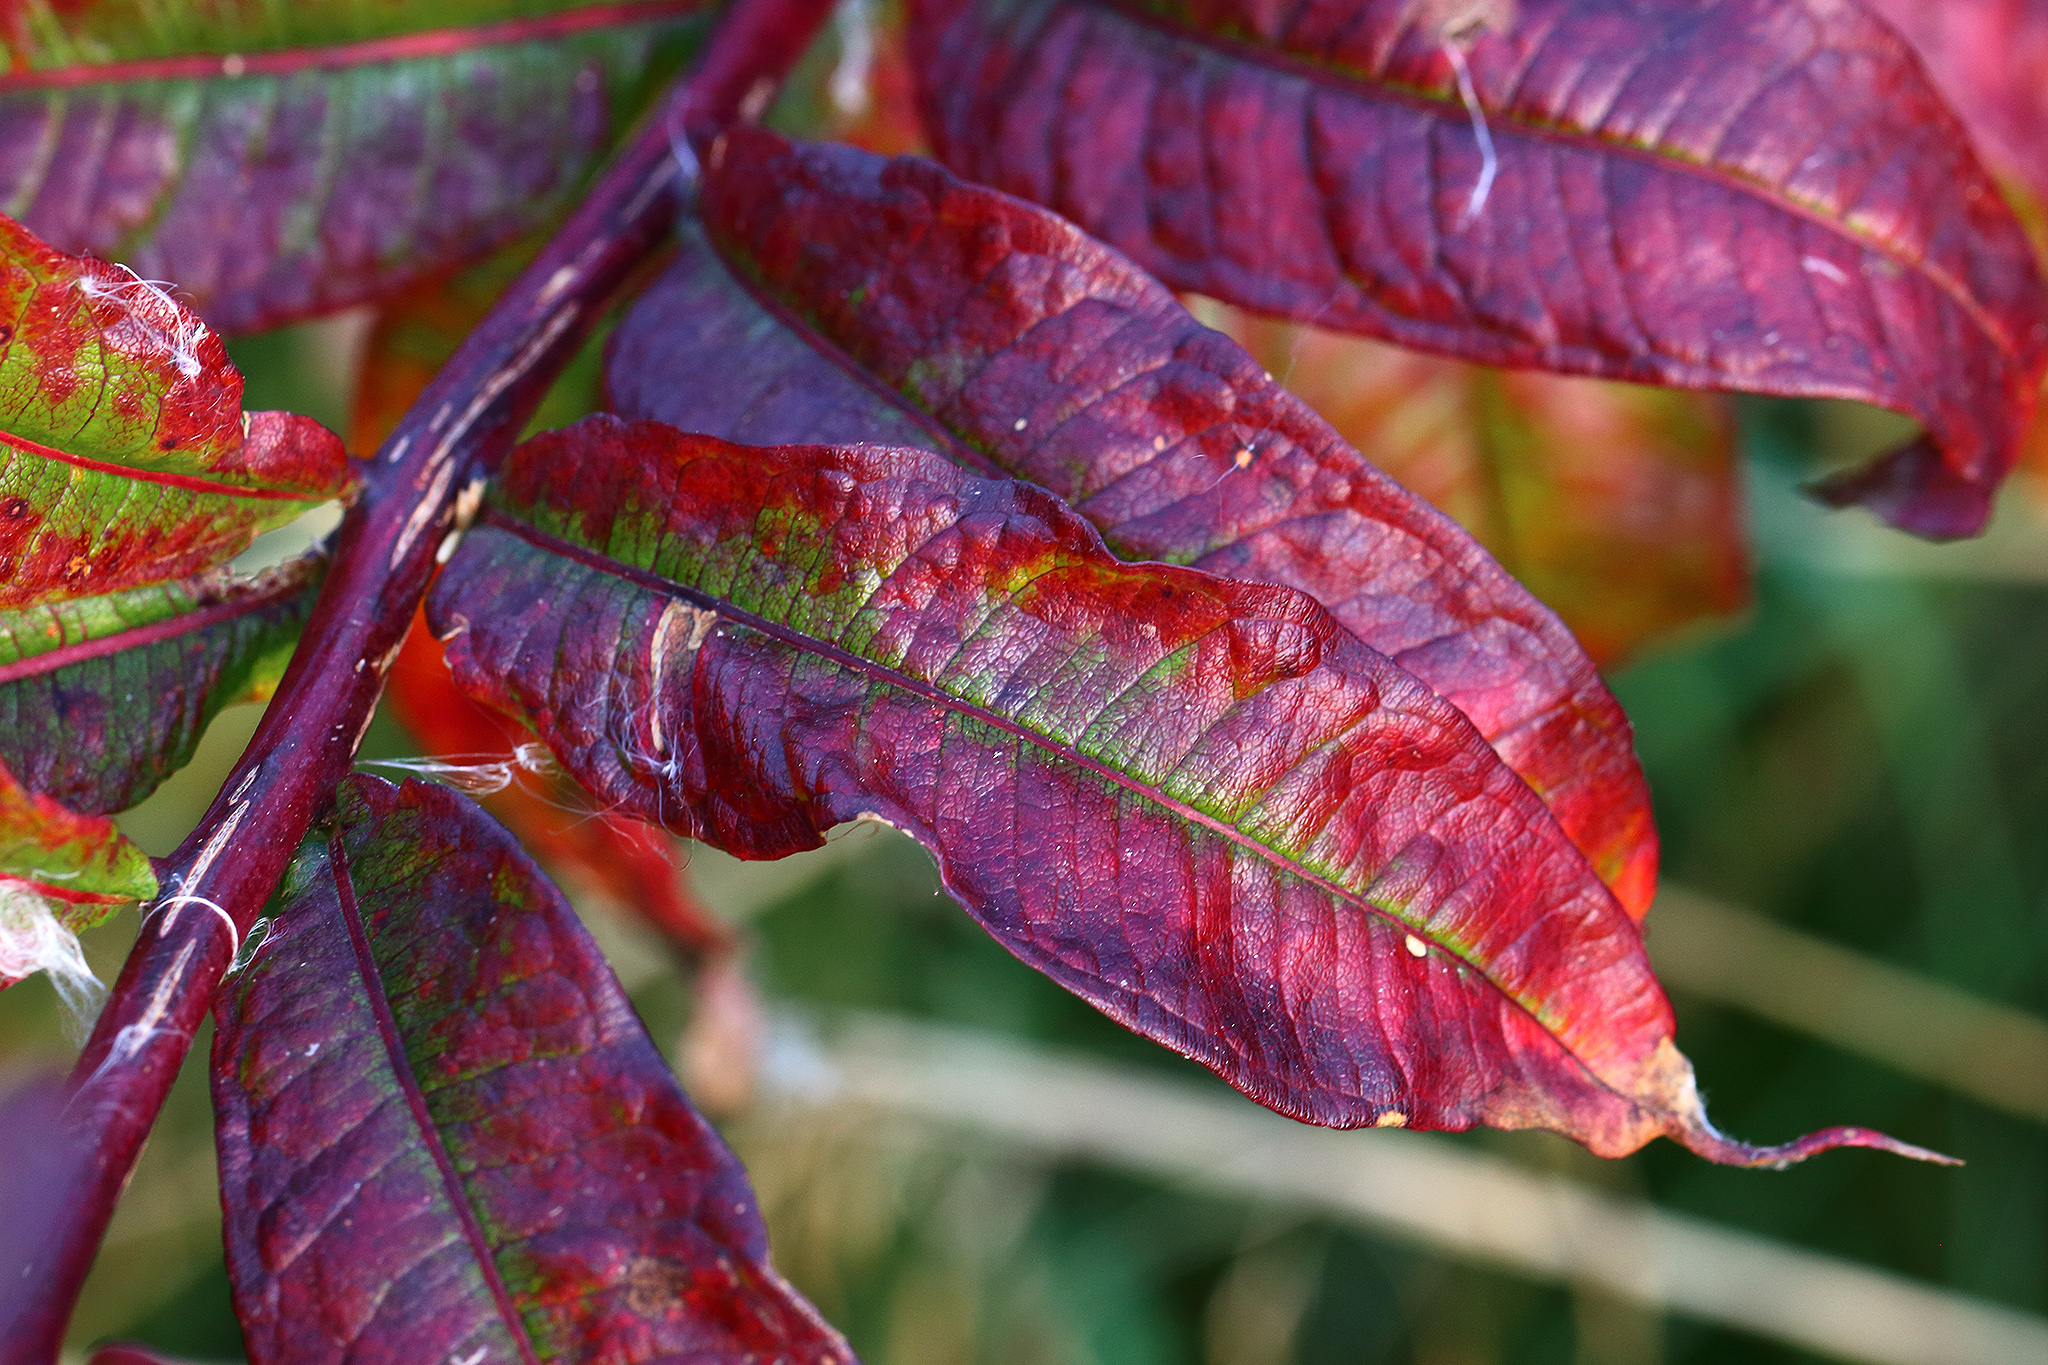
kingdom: Plantae
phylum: Tracheophyta
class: Magnoliopsida
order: Myrtales
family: Onagraceae
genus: Chamaenerion
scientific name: Chamaenerion angustifolium
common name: Fireweed
